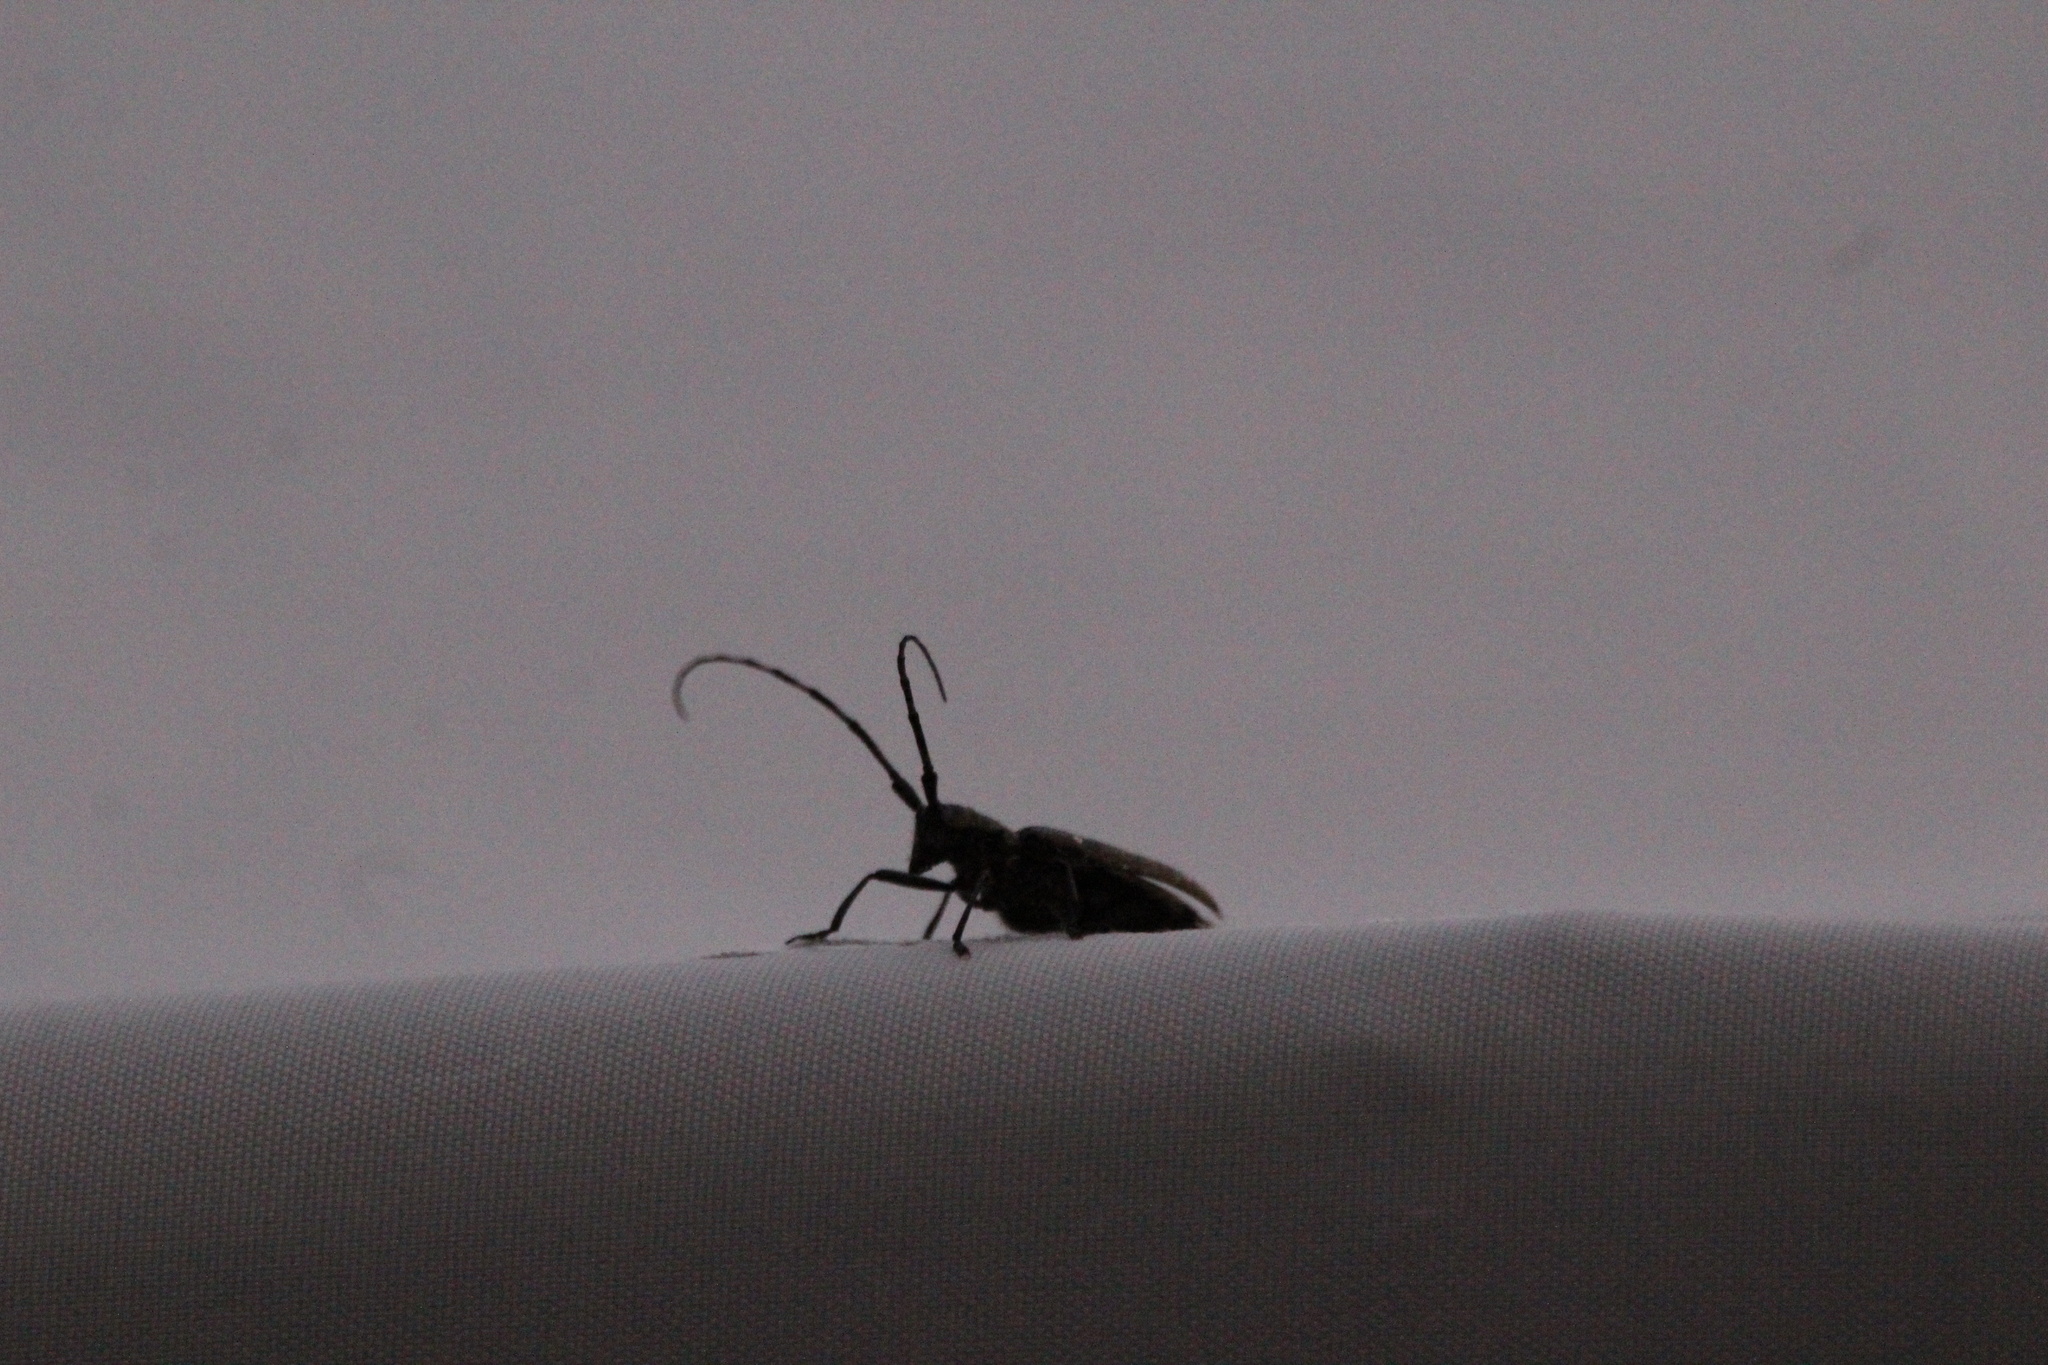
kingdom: Animalia
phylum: Arthropoda
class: Insecta
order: Coleoptera
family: Cerambycidae
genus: Monochamus
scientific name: Monochamus scutellatus
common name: White-spotted sawyer beetle
